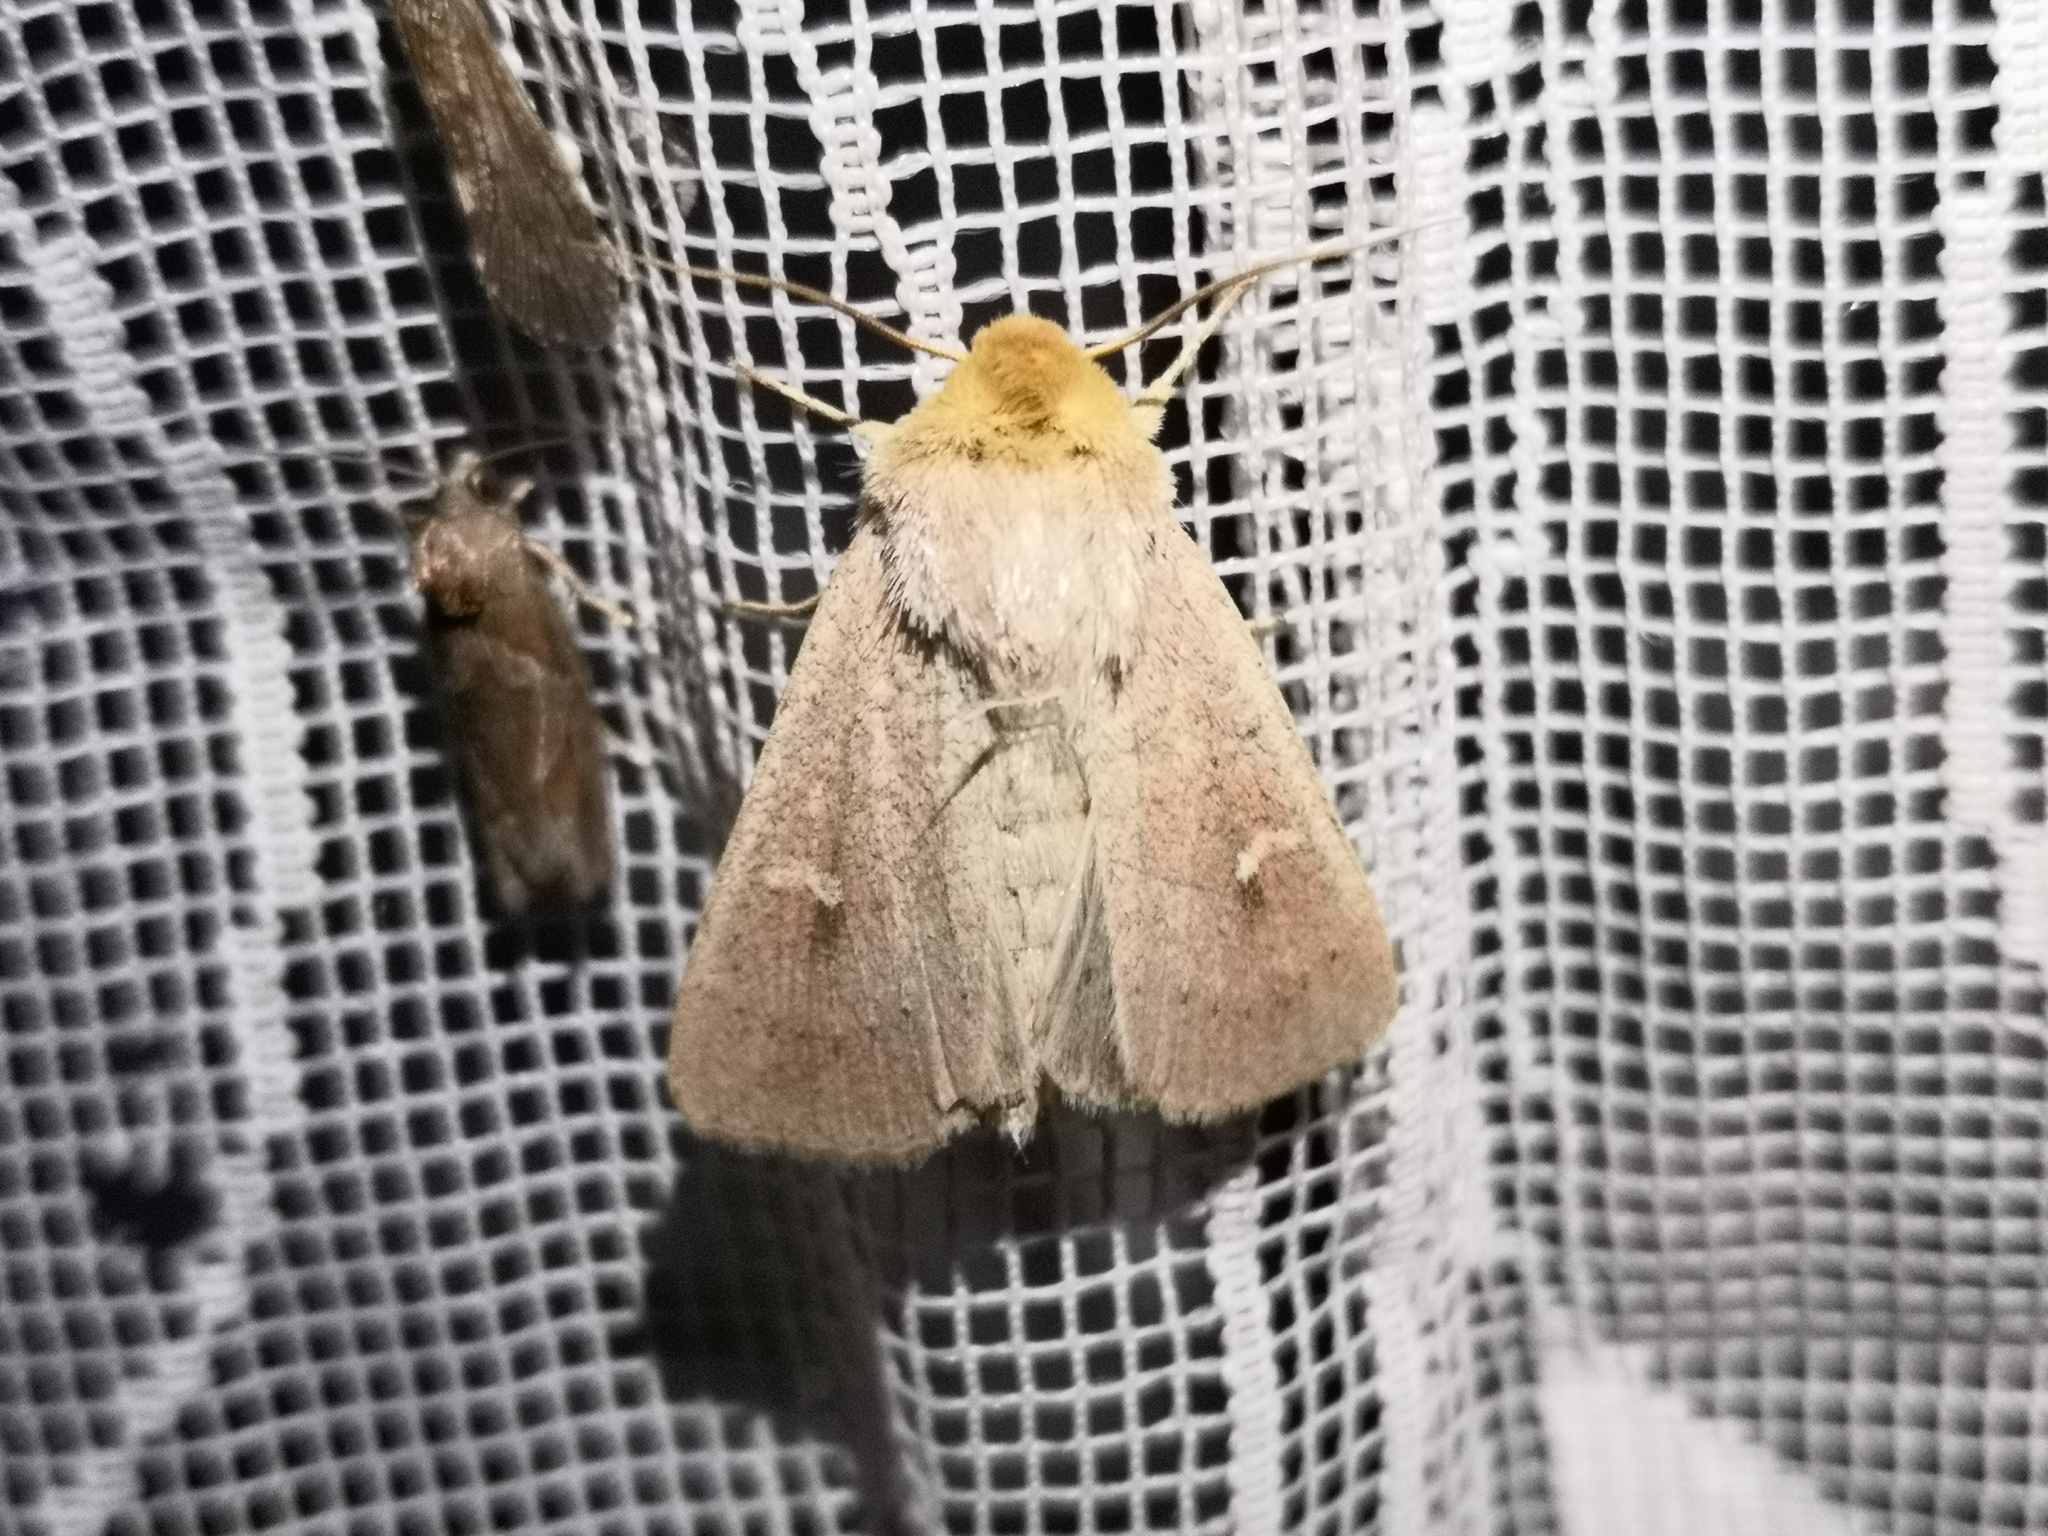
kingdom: Animalia
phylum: Arthropoda
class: Insecta
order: Lepidoptera
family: Noctuidae
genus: Mythimna
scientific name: Mythimna ferrago
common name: Clay
